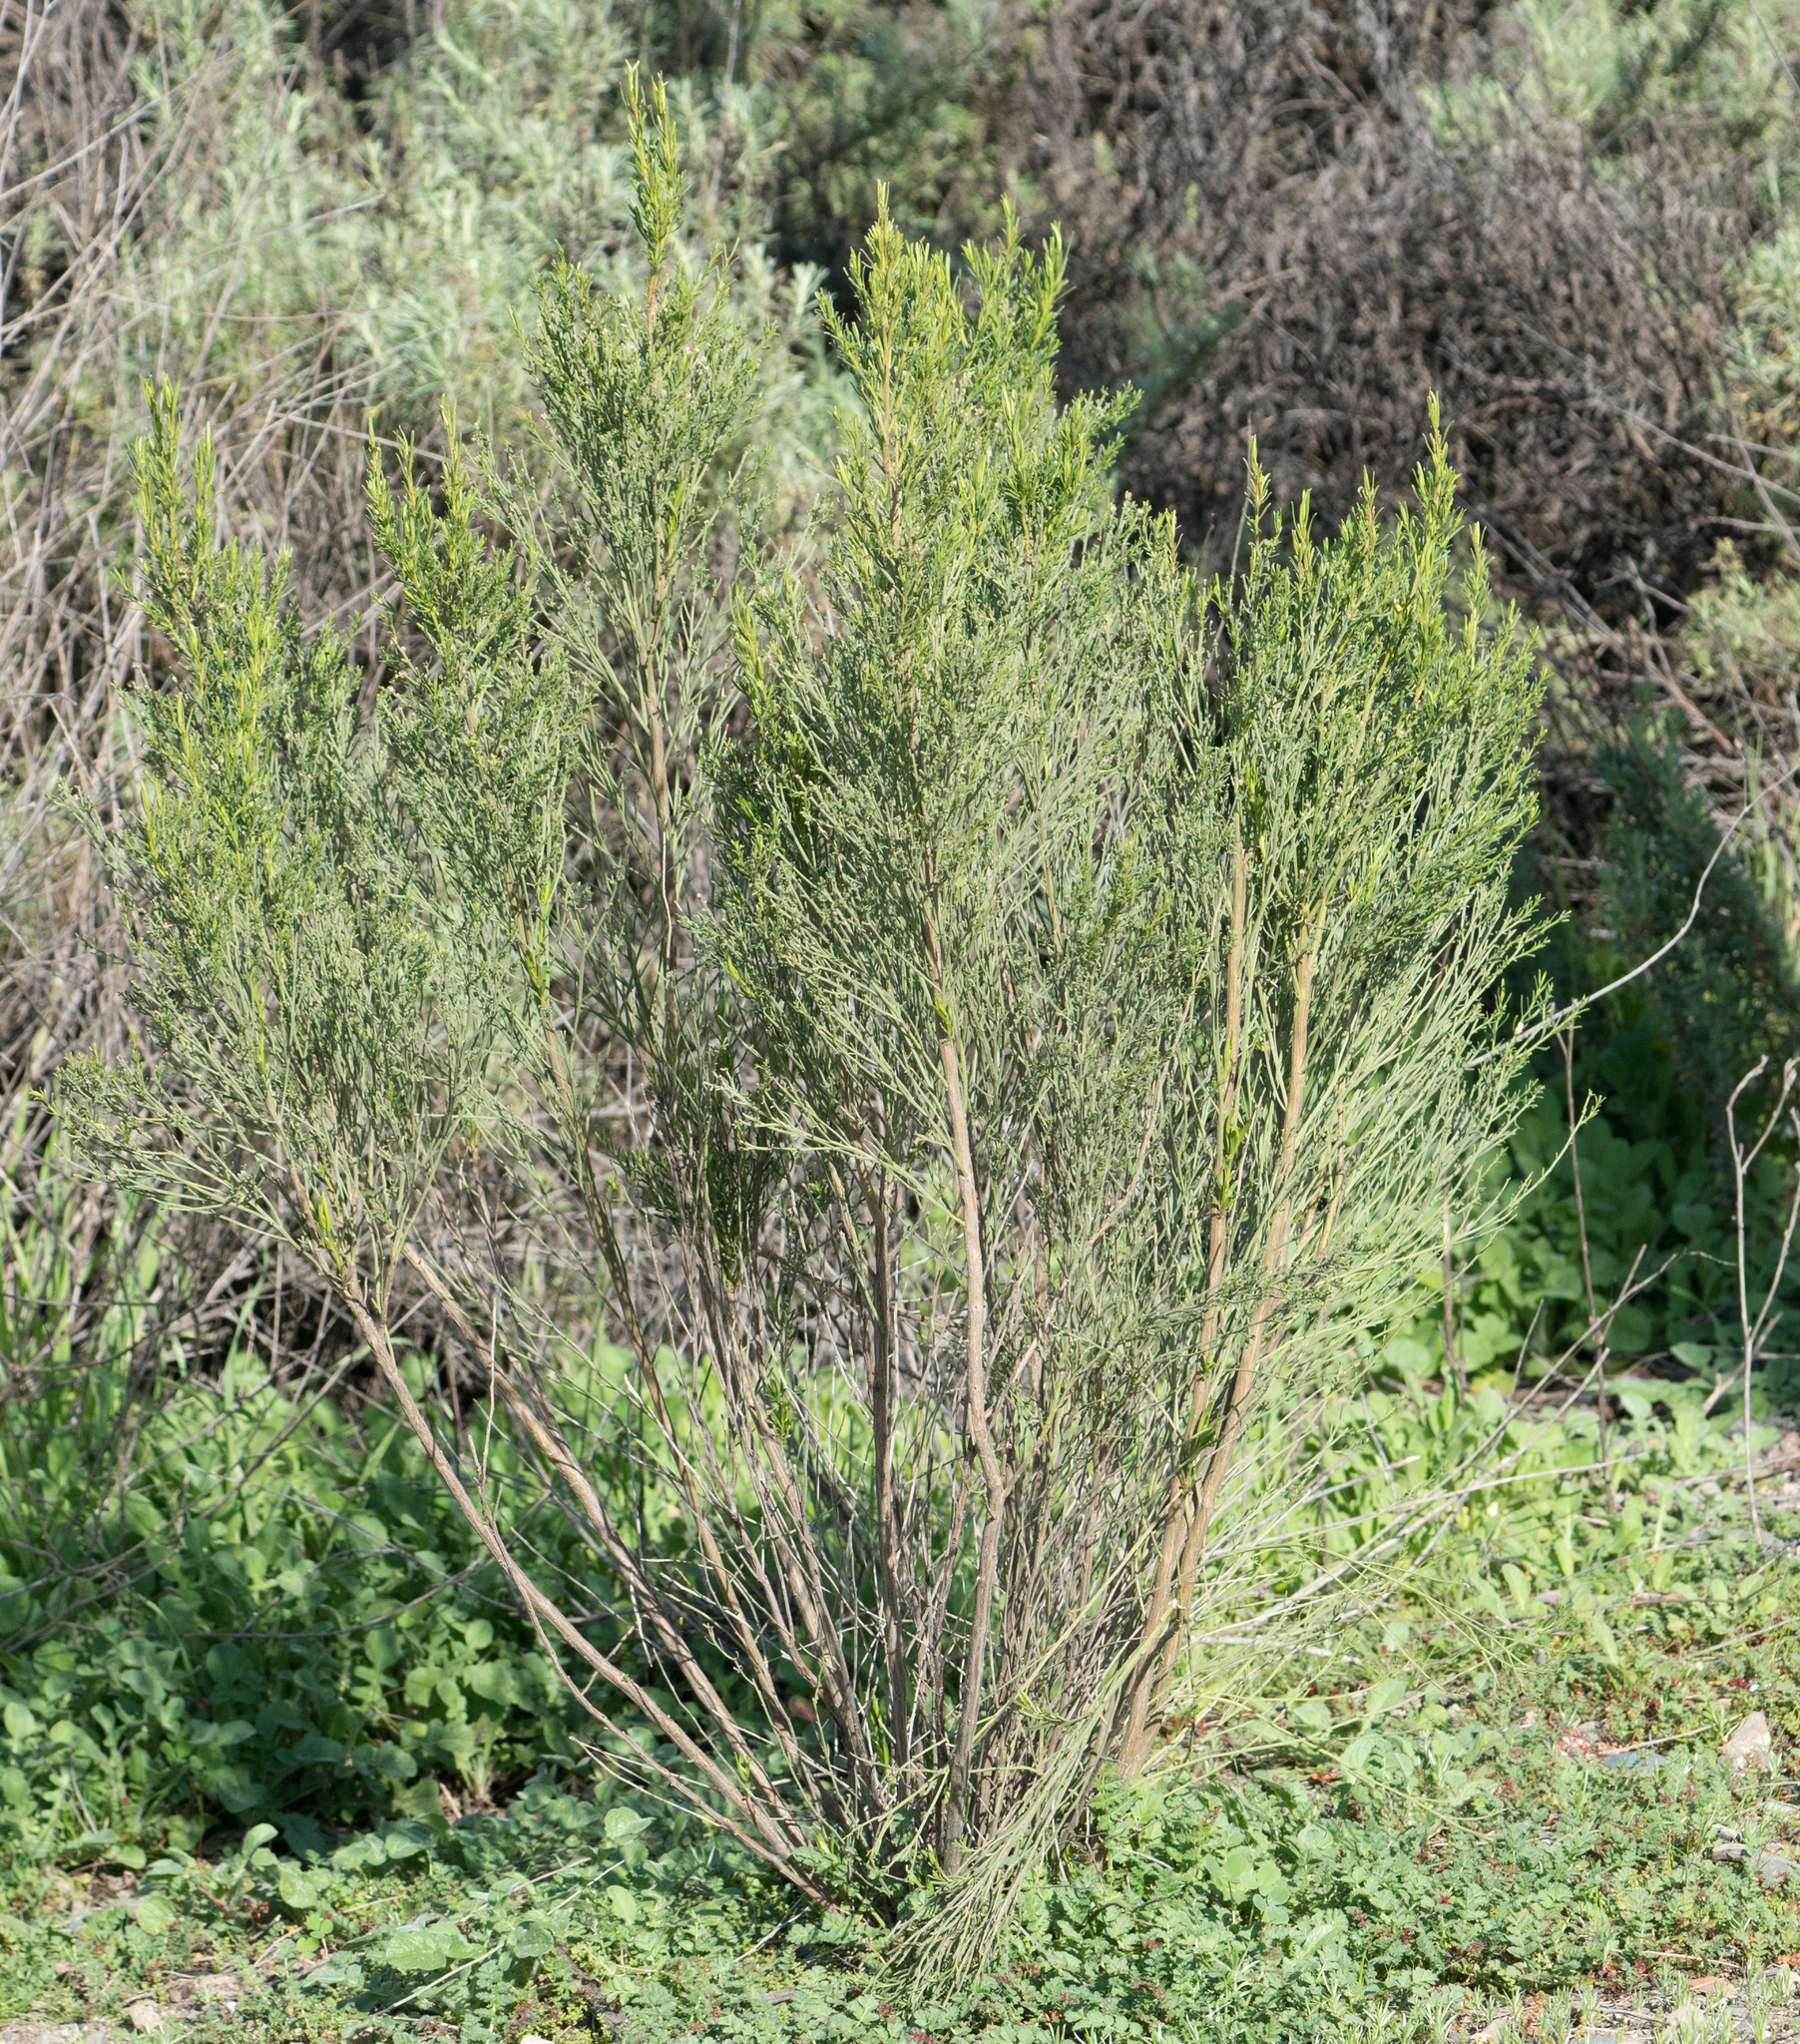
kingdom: Plantae
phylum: Tracheophyta
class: Magnoliopsida
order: Asterales
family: Asteraceae
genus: Baccharis
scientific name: Baccharis sarothroides
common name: Desert-broom
